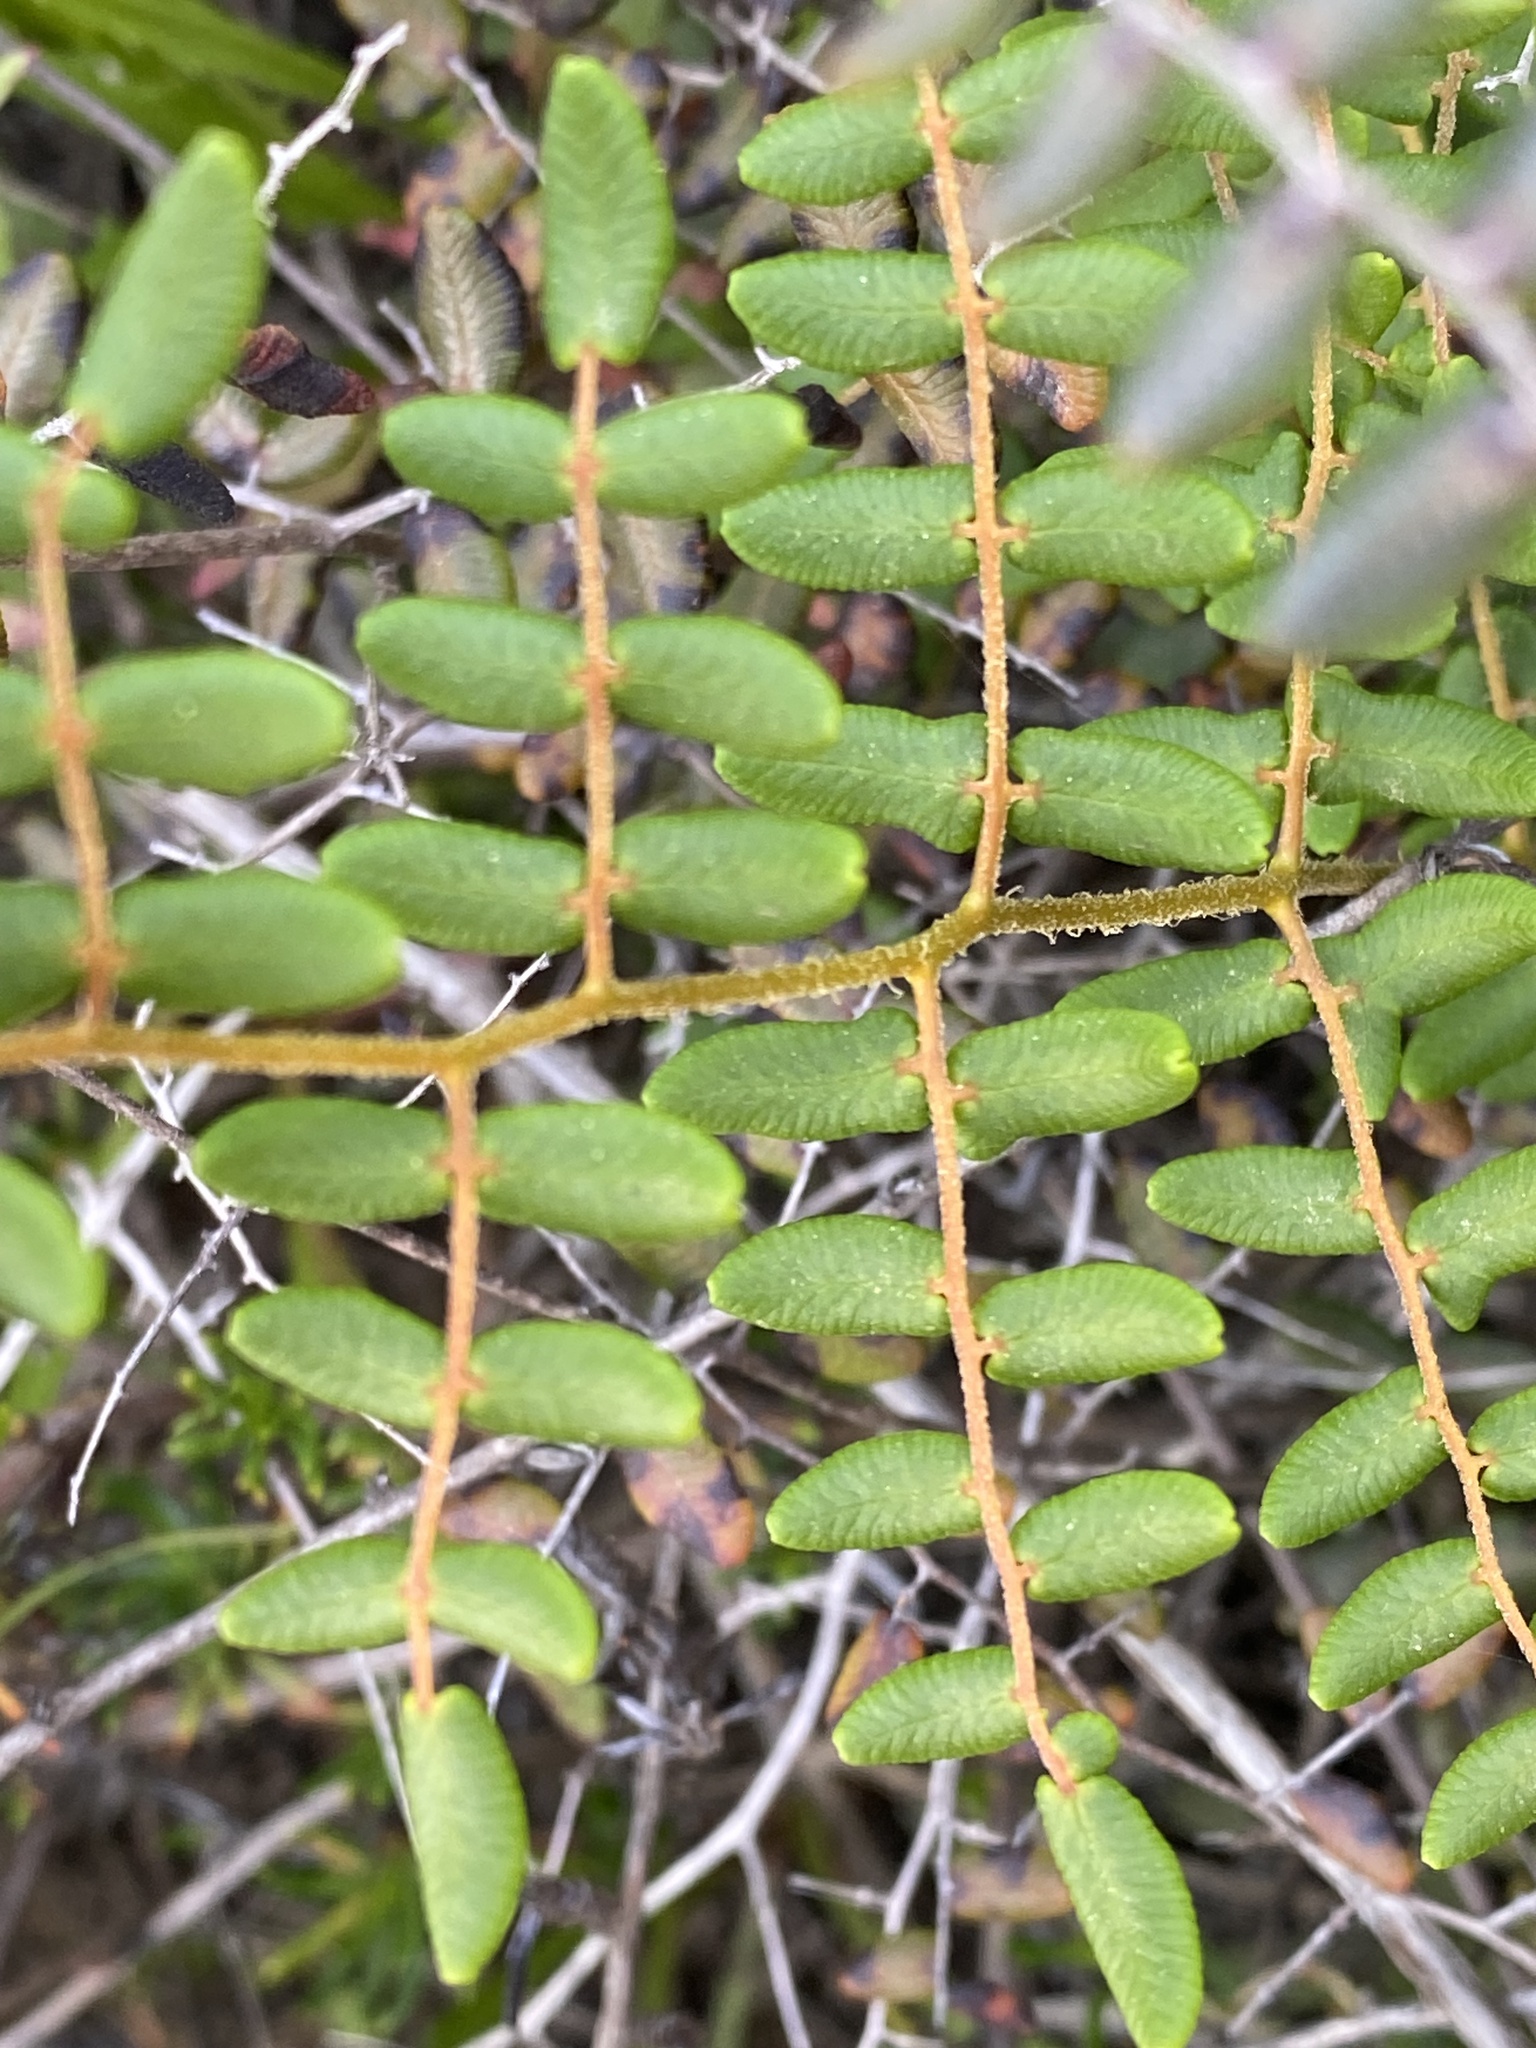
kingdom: Plantae
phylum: Tracheophyta
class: Polypodiopsida
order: Polypodiales
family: Pteridaceae
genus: Pellaea
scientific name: Pellaea andromedifolia
